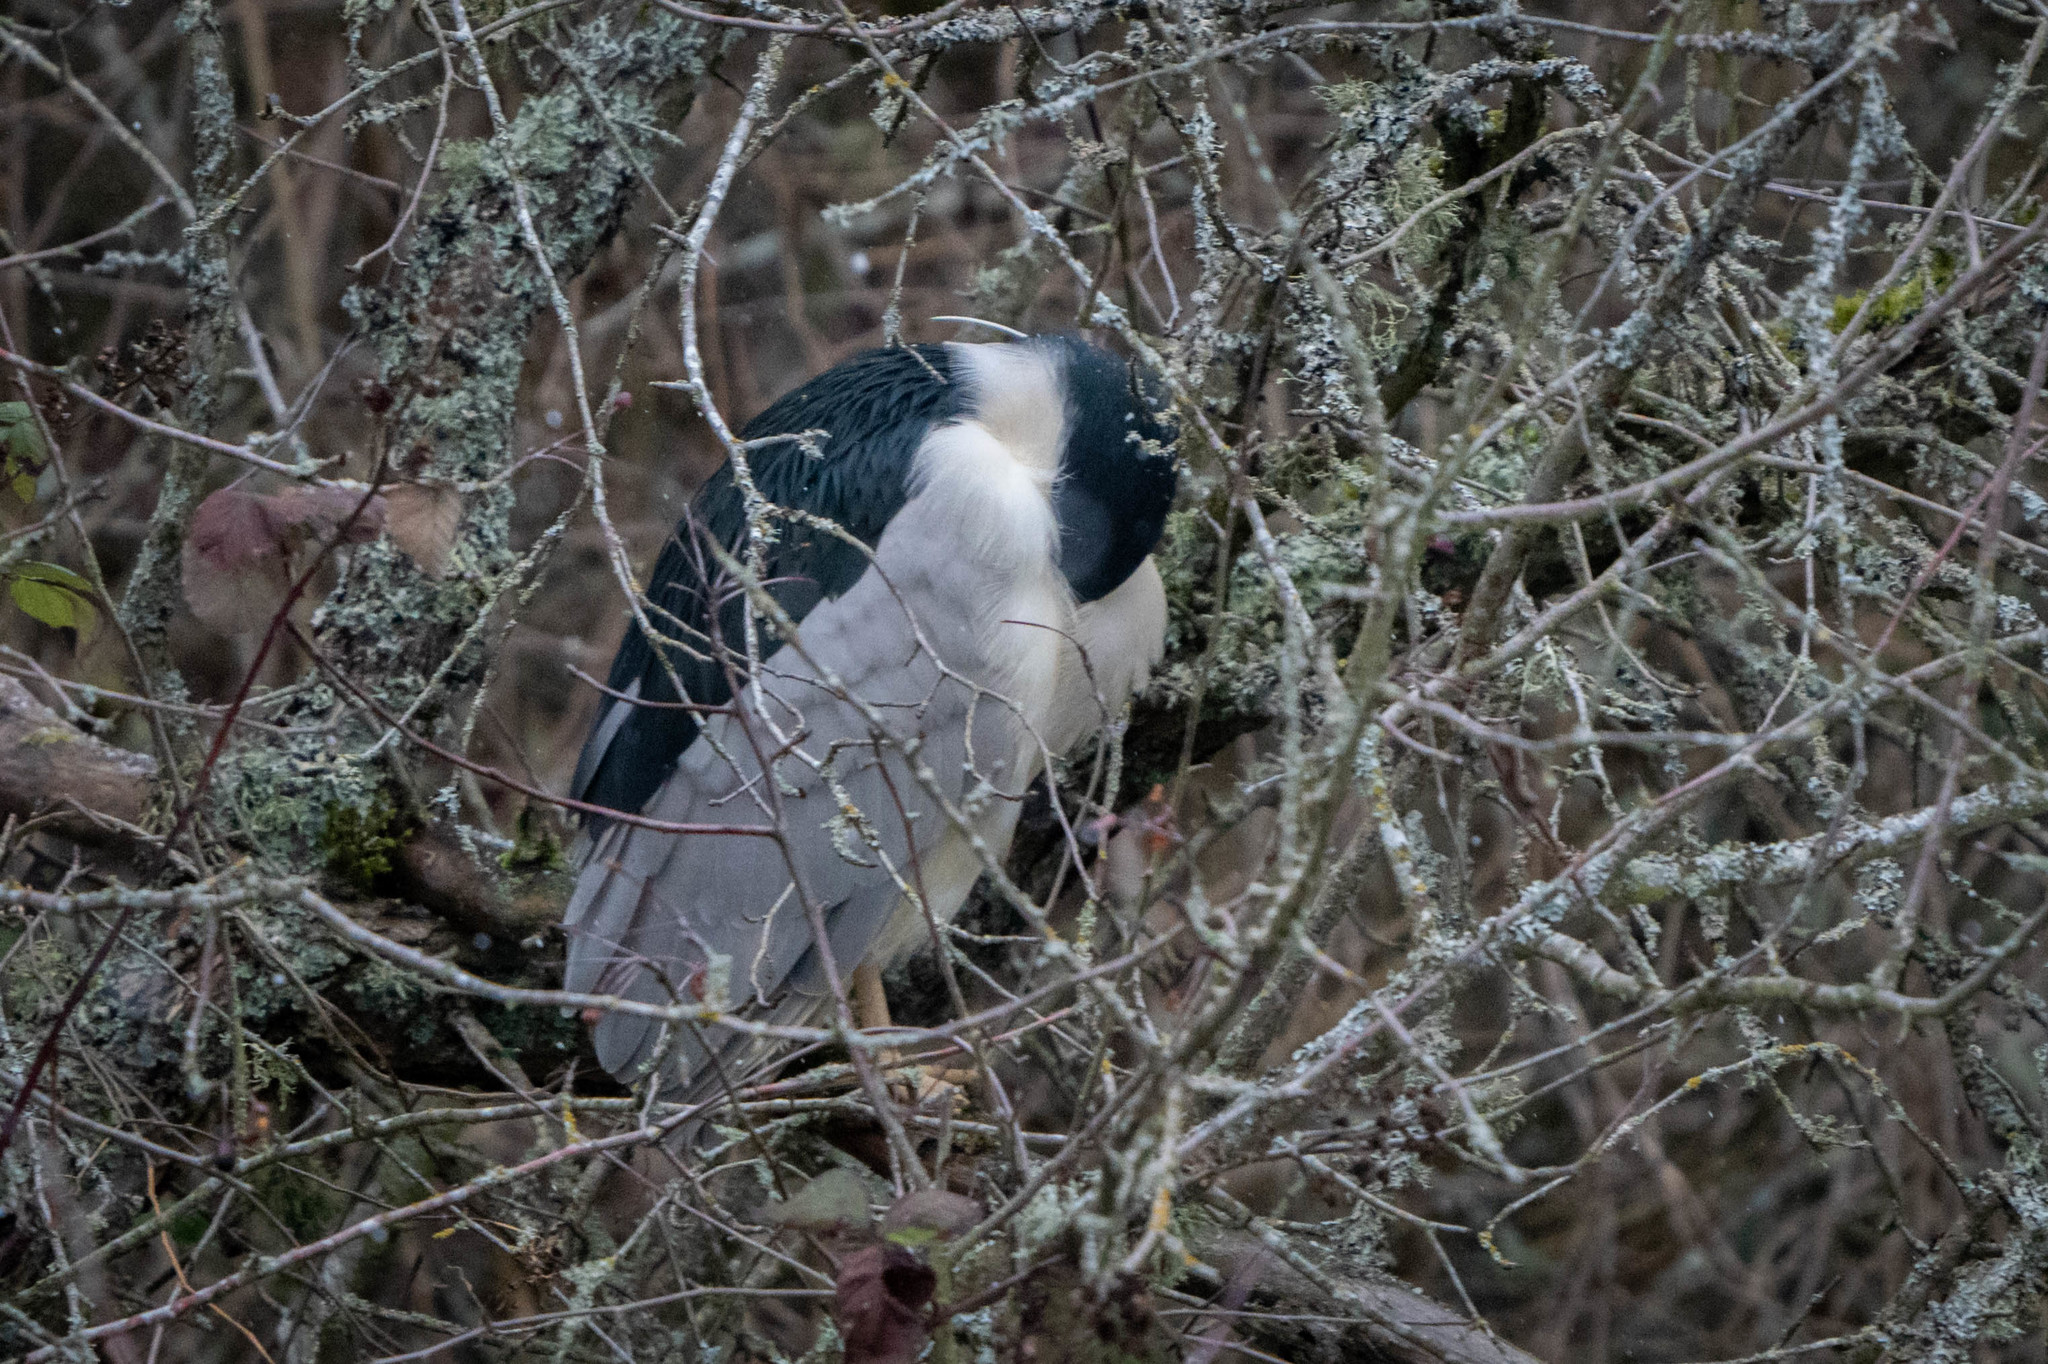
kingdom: Animalia
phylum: Chordata
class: Aves
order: Pelecaniformes
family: Ardeidae
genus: Nycticorax
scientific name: Nycticorax nycticorax
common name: Black-crowned night heron
